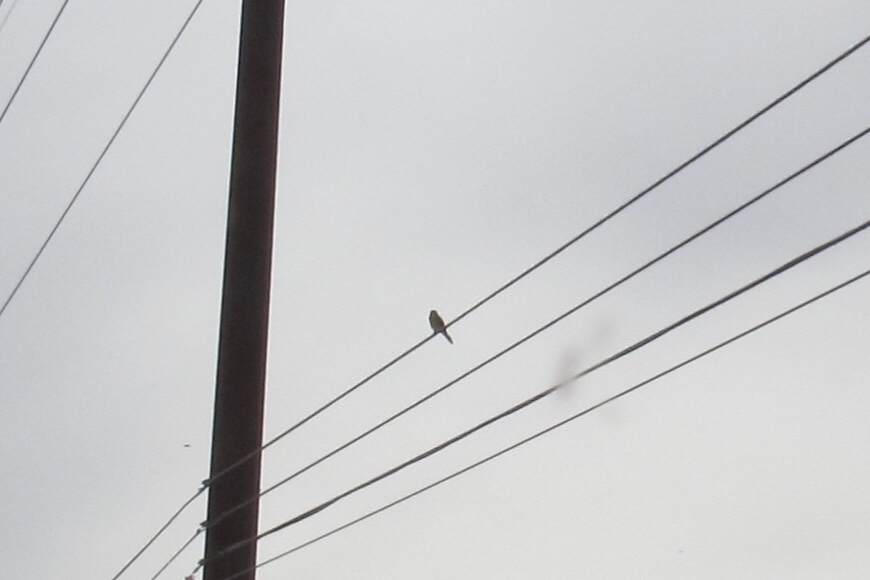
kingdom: Animalia
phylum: Chordata
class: Aves
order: Falconiformes
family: Falconidae
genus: Falco
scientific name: Falco sparverius
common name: American kestrel
